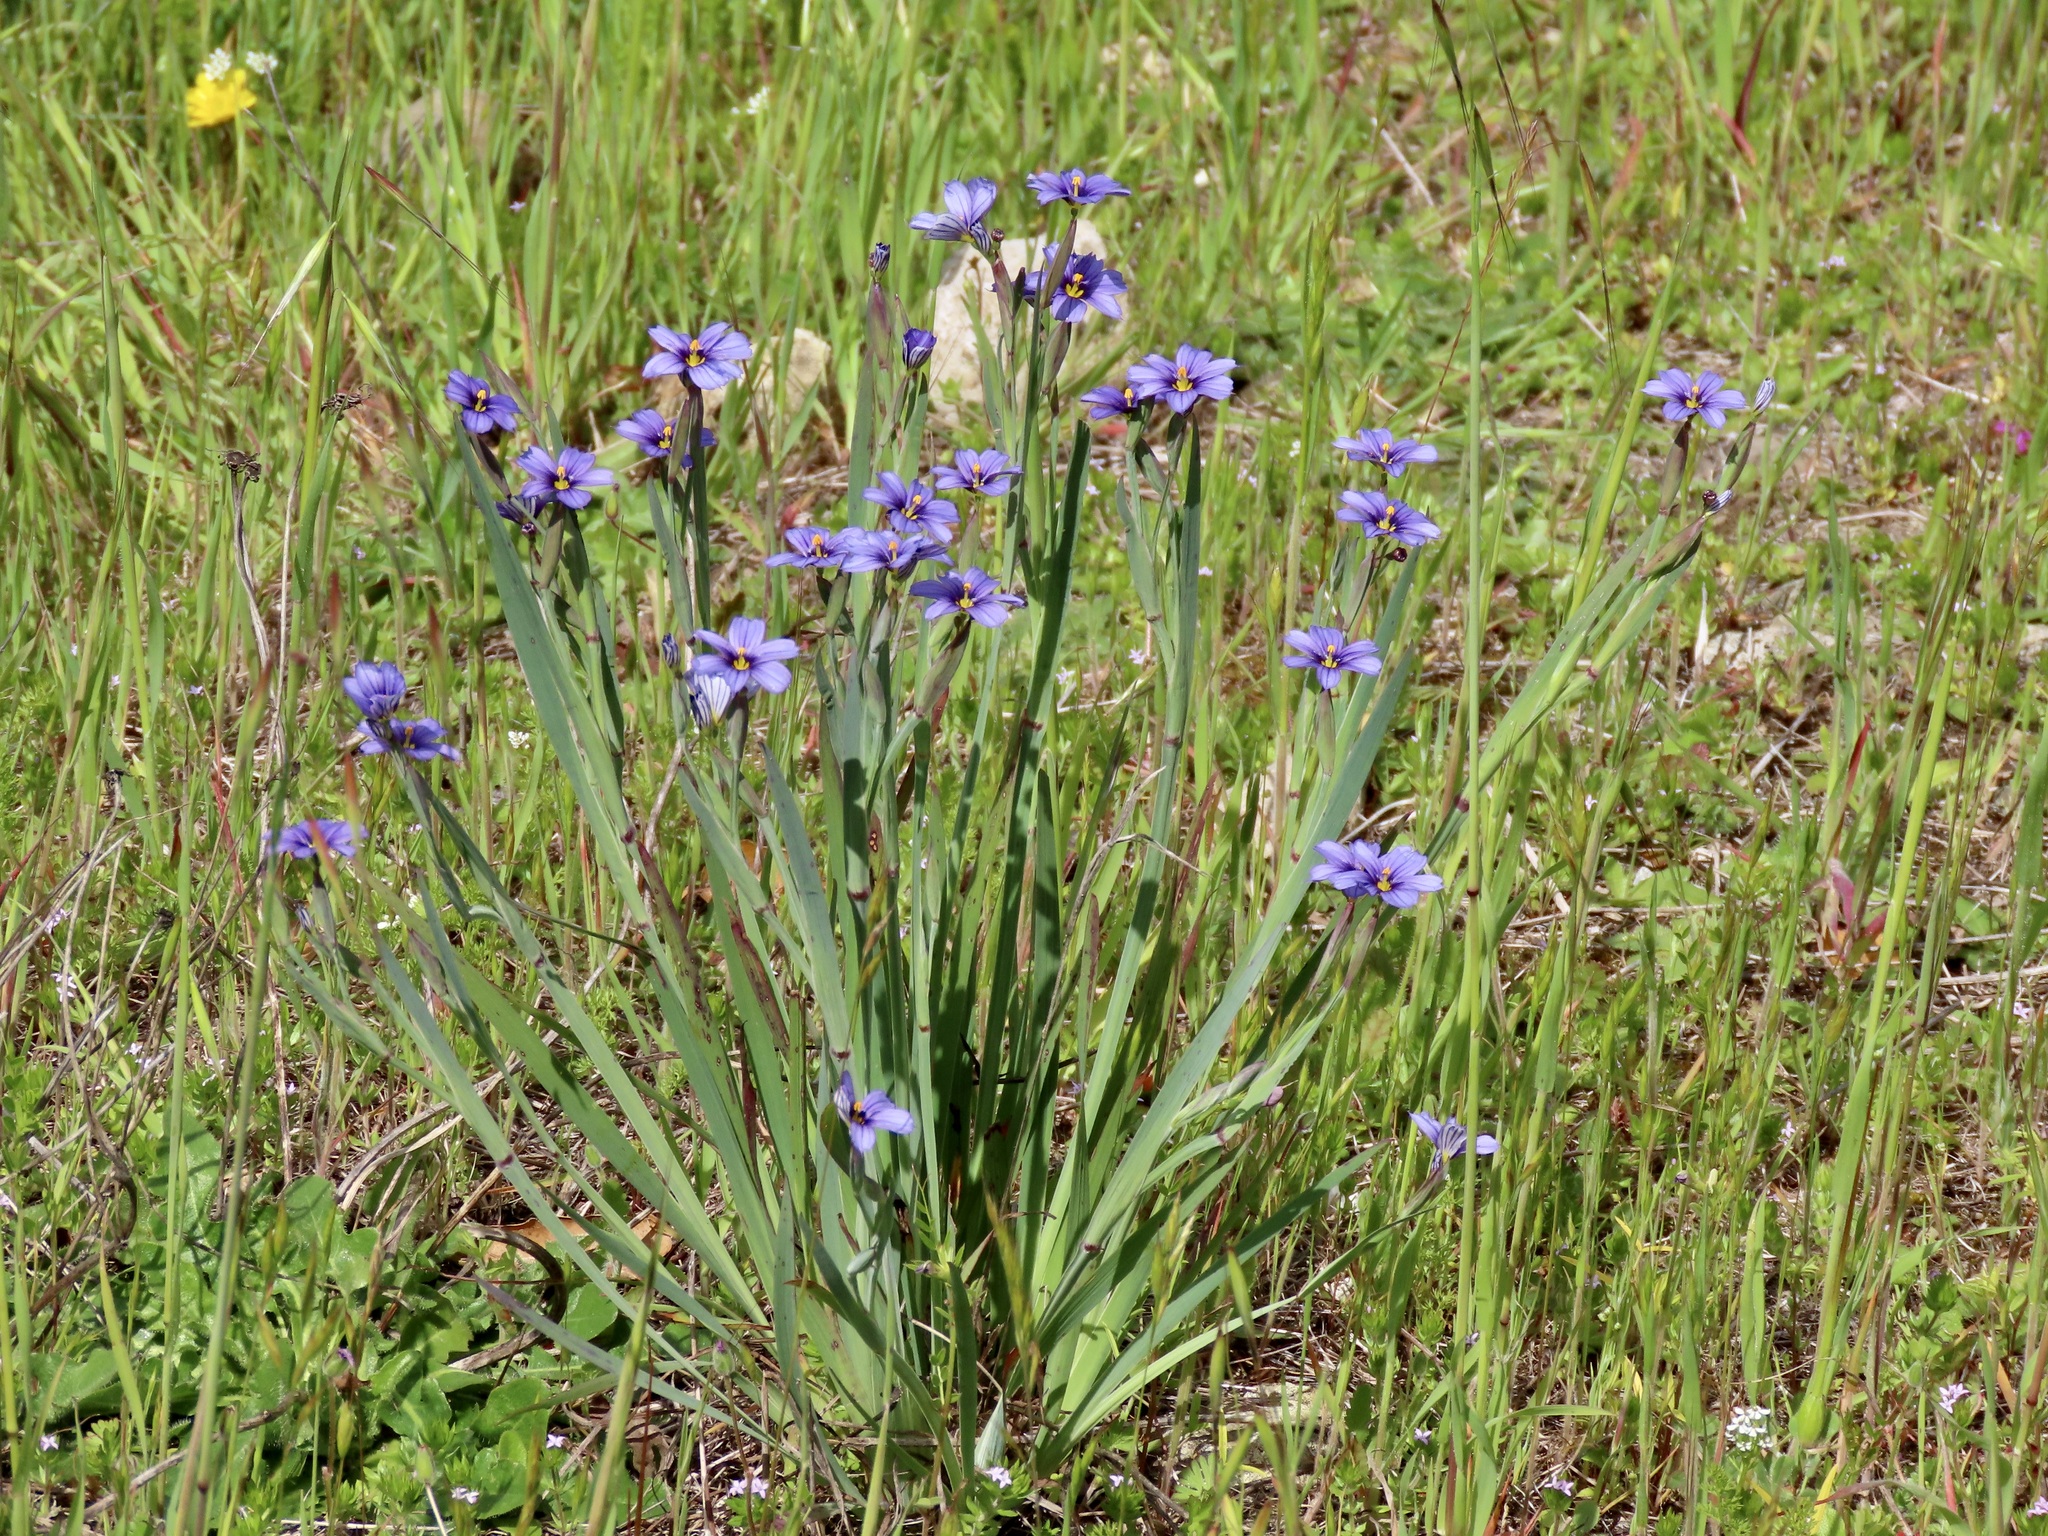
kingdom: Plantae
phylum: Tracheophyta
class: Liliopsida
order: Asparagales
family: Iridaceae
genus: Sisyrinchium
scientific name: Sisyrinchium bellum
